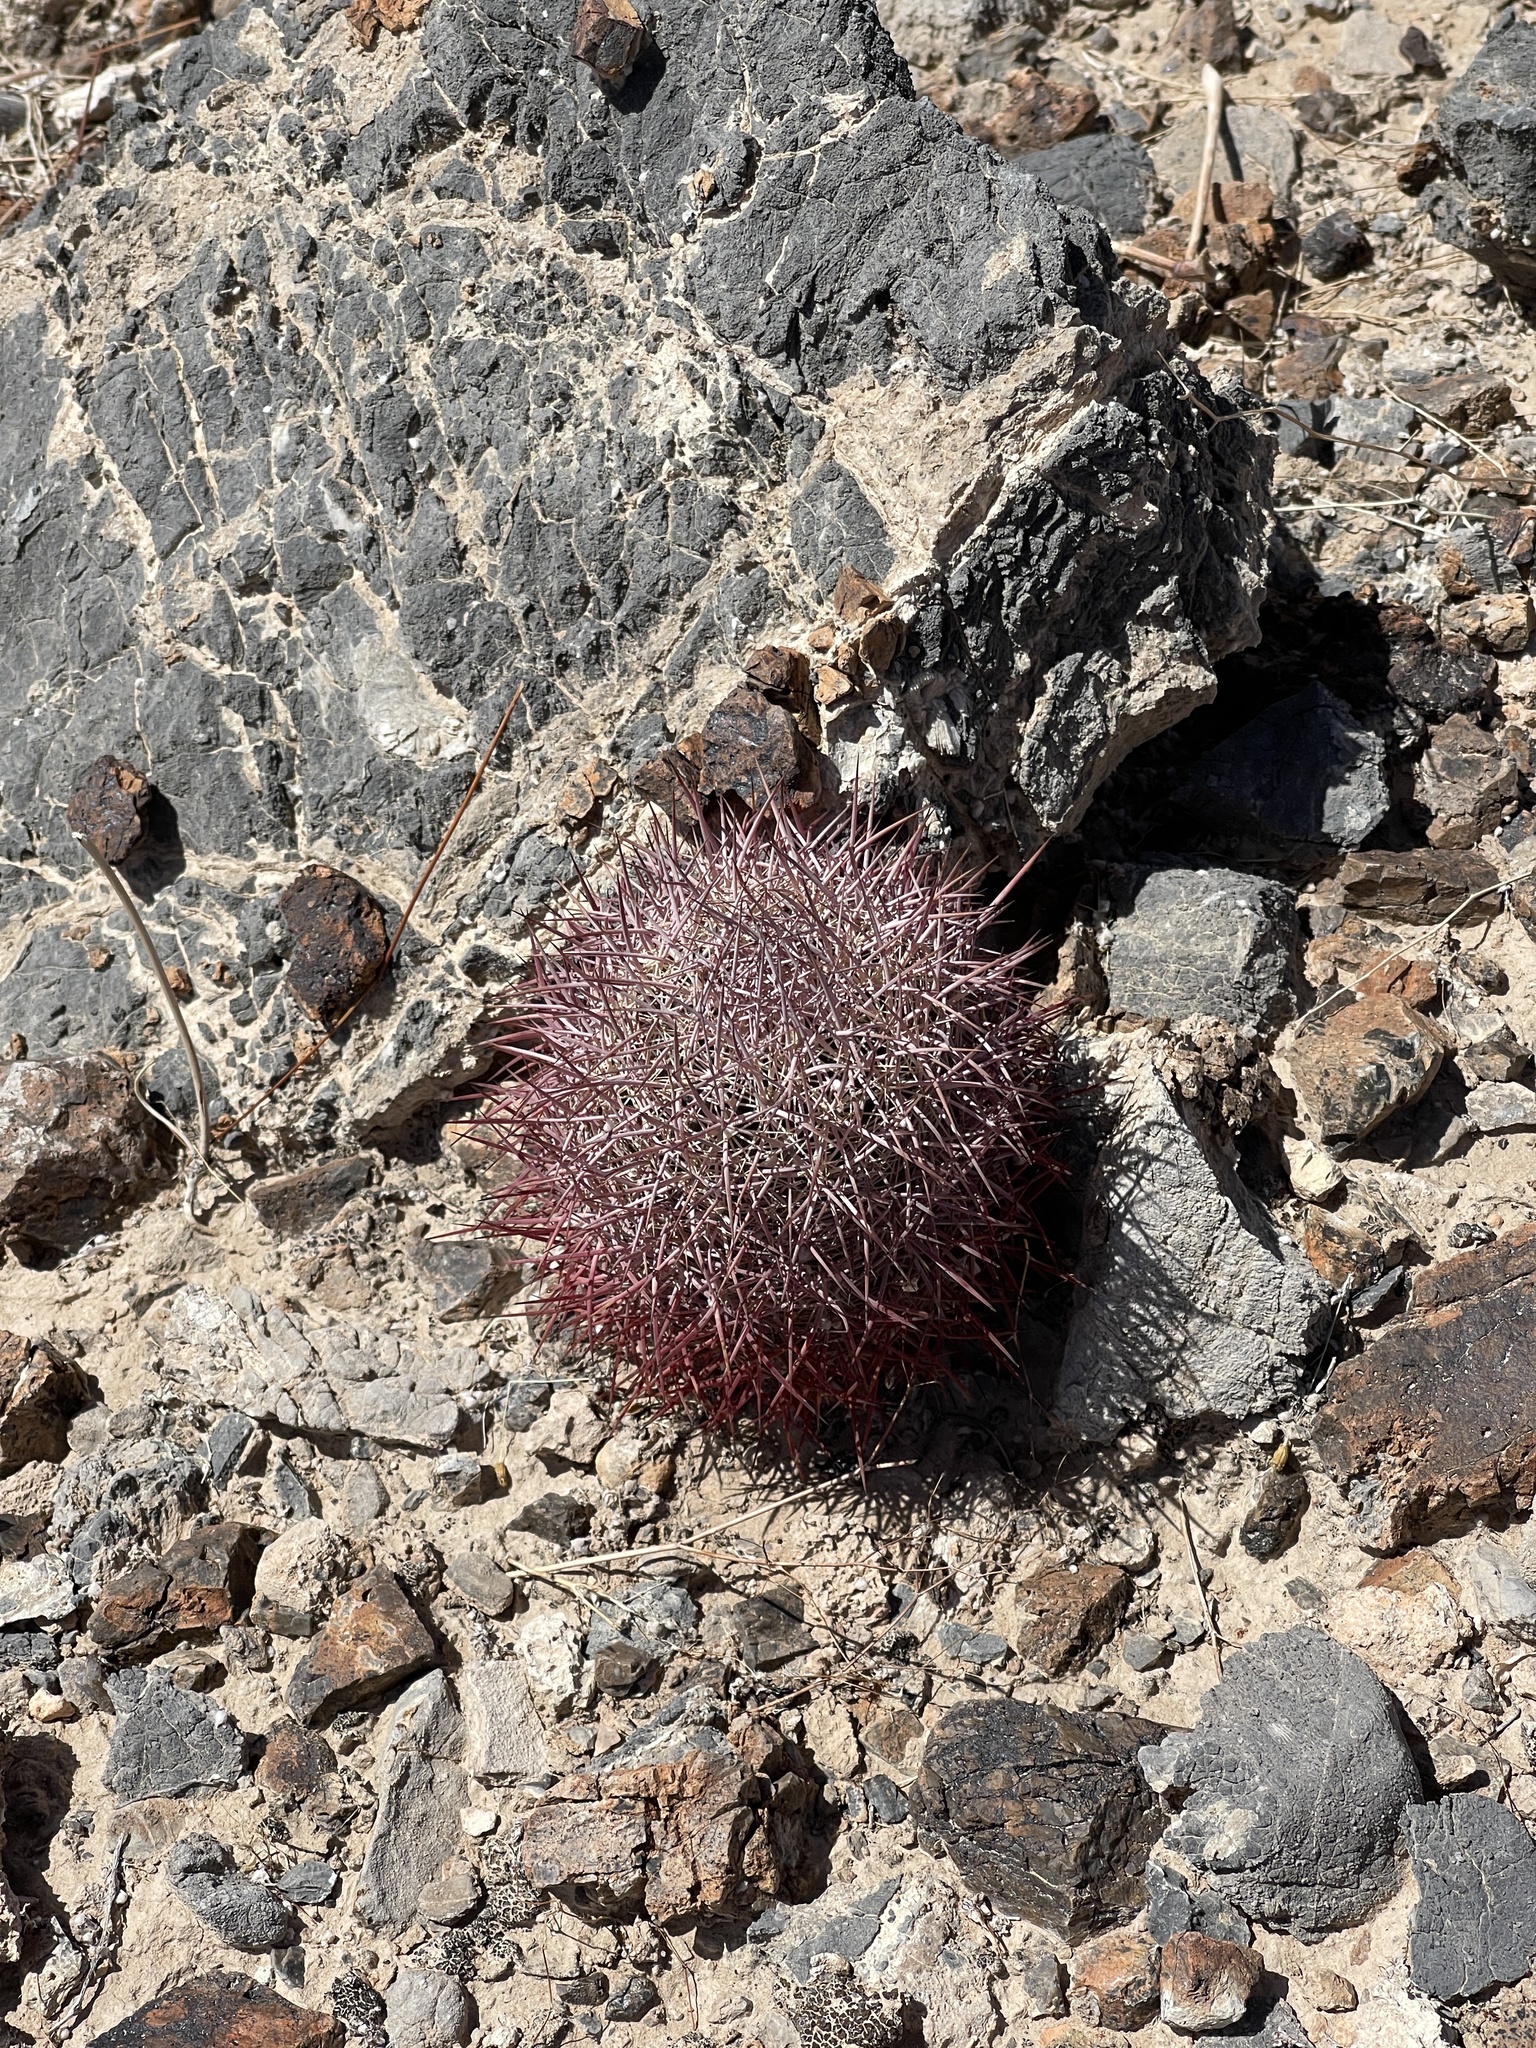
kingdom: Plantae
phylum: Tracheophyta
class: Magnoliopsida
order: Caryophyllales
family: Cactaceae
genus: Sclerocactus
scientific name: Sclerocactus johnsonii
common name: Eight-spine fishhook cactus
